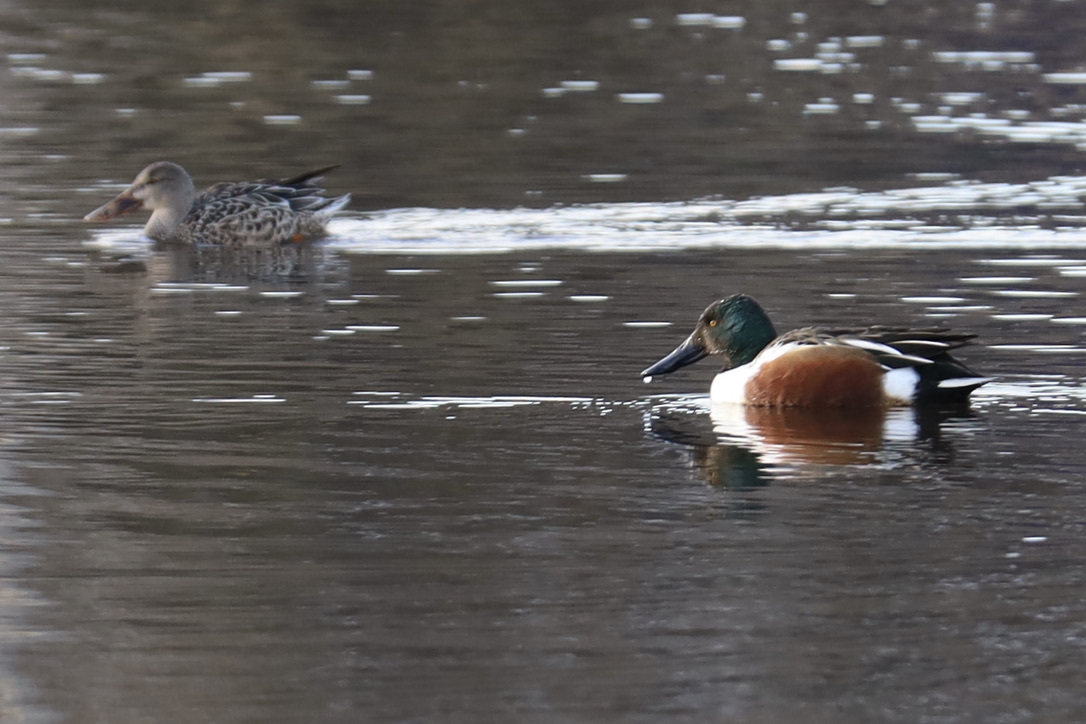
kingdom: Animalia
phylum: Chordata
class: Aves
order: Anseriformes
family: Anatidae
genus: Spatula
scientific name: Spatula clypeata
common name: Northern shoveler
